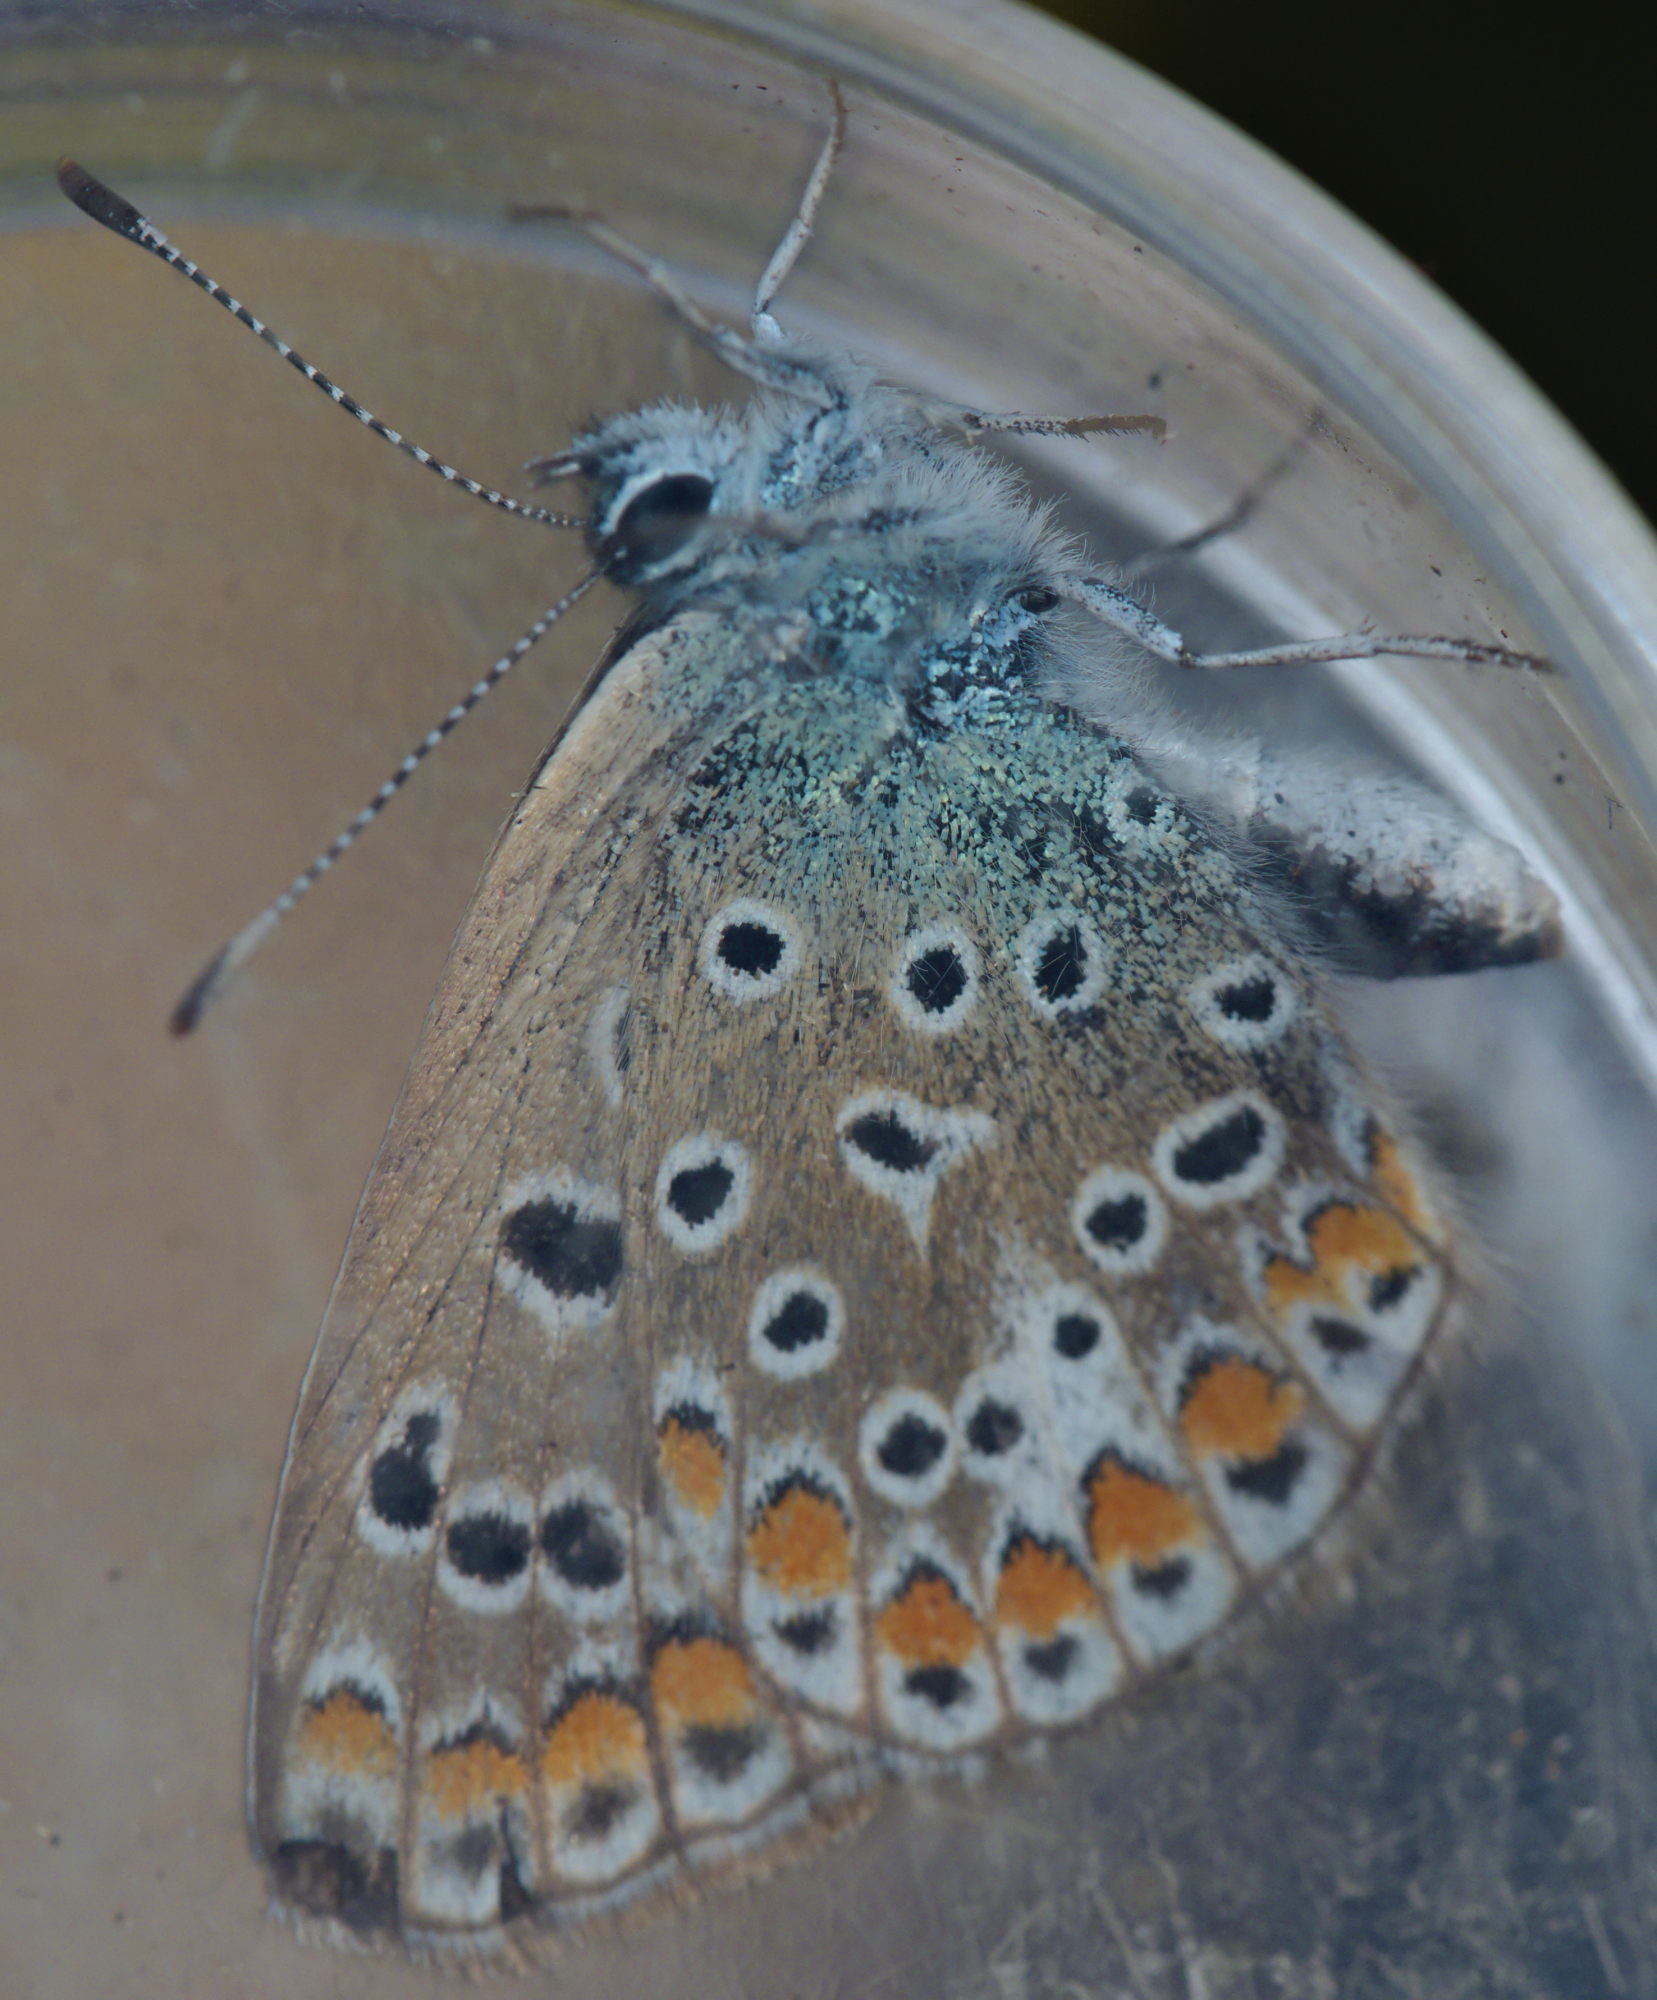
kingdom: Animalia
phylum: Arthropoda
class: Insecta
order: Lepidoptera
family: Lycaenidae
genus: Polyommatus
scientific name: Polyommatus icarus
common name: Common blue
